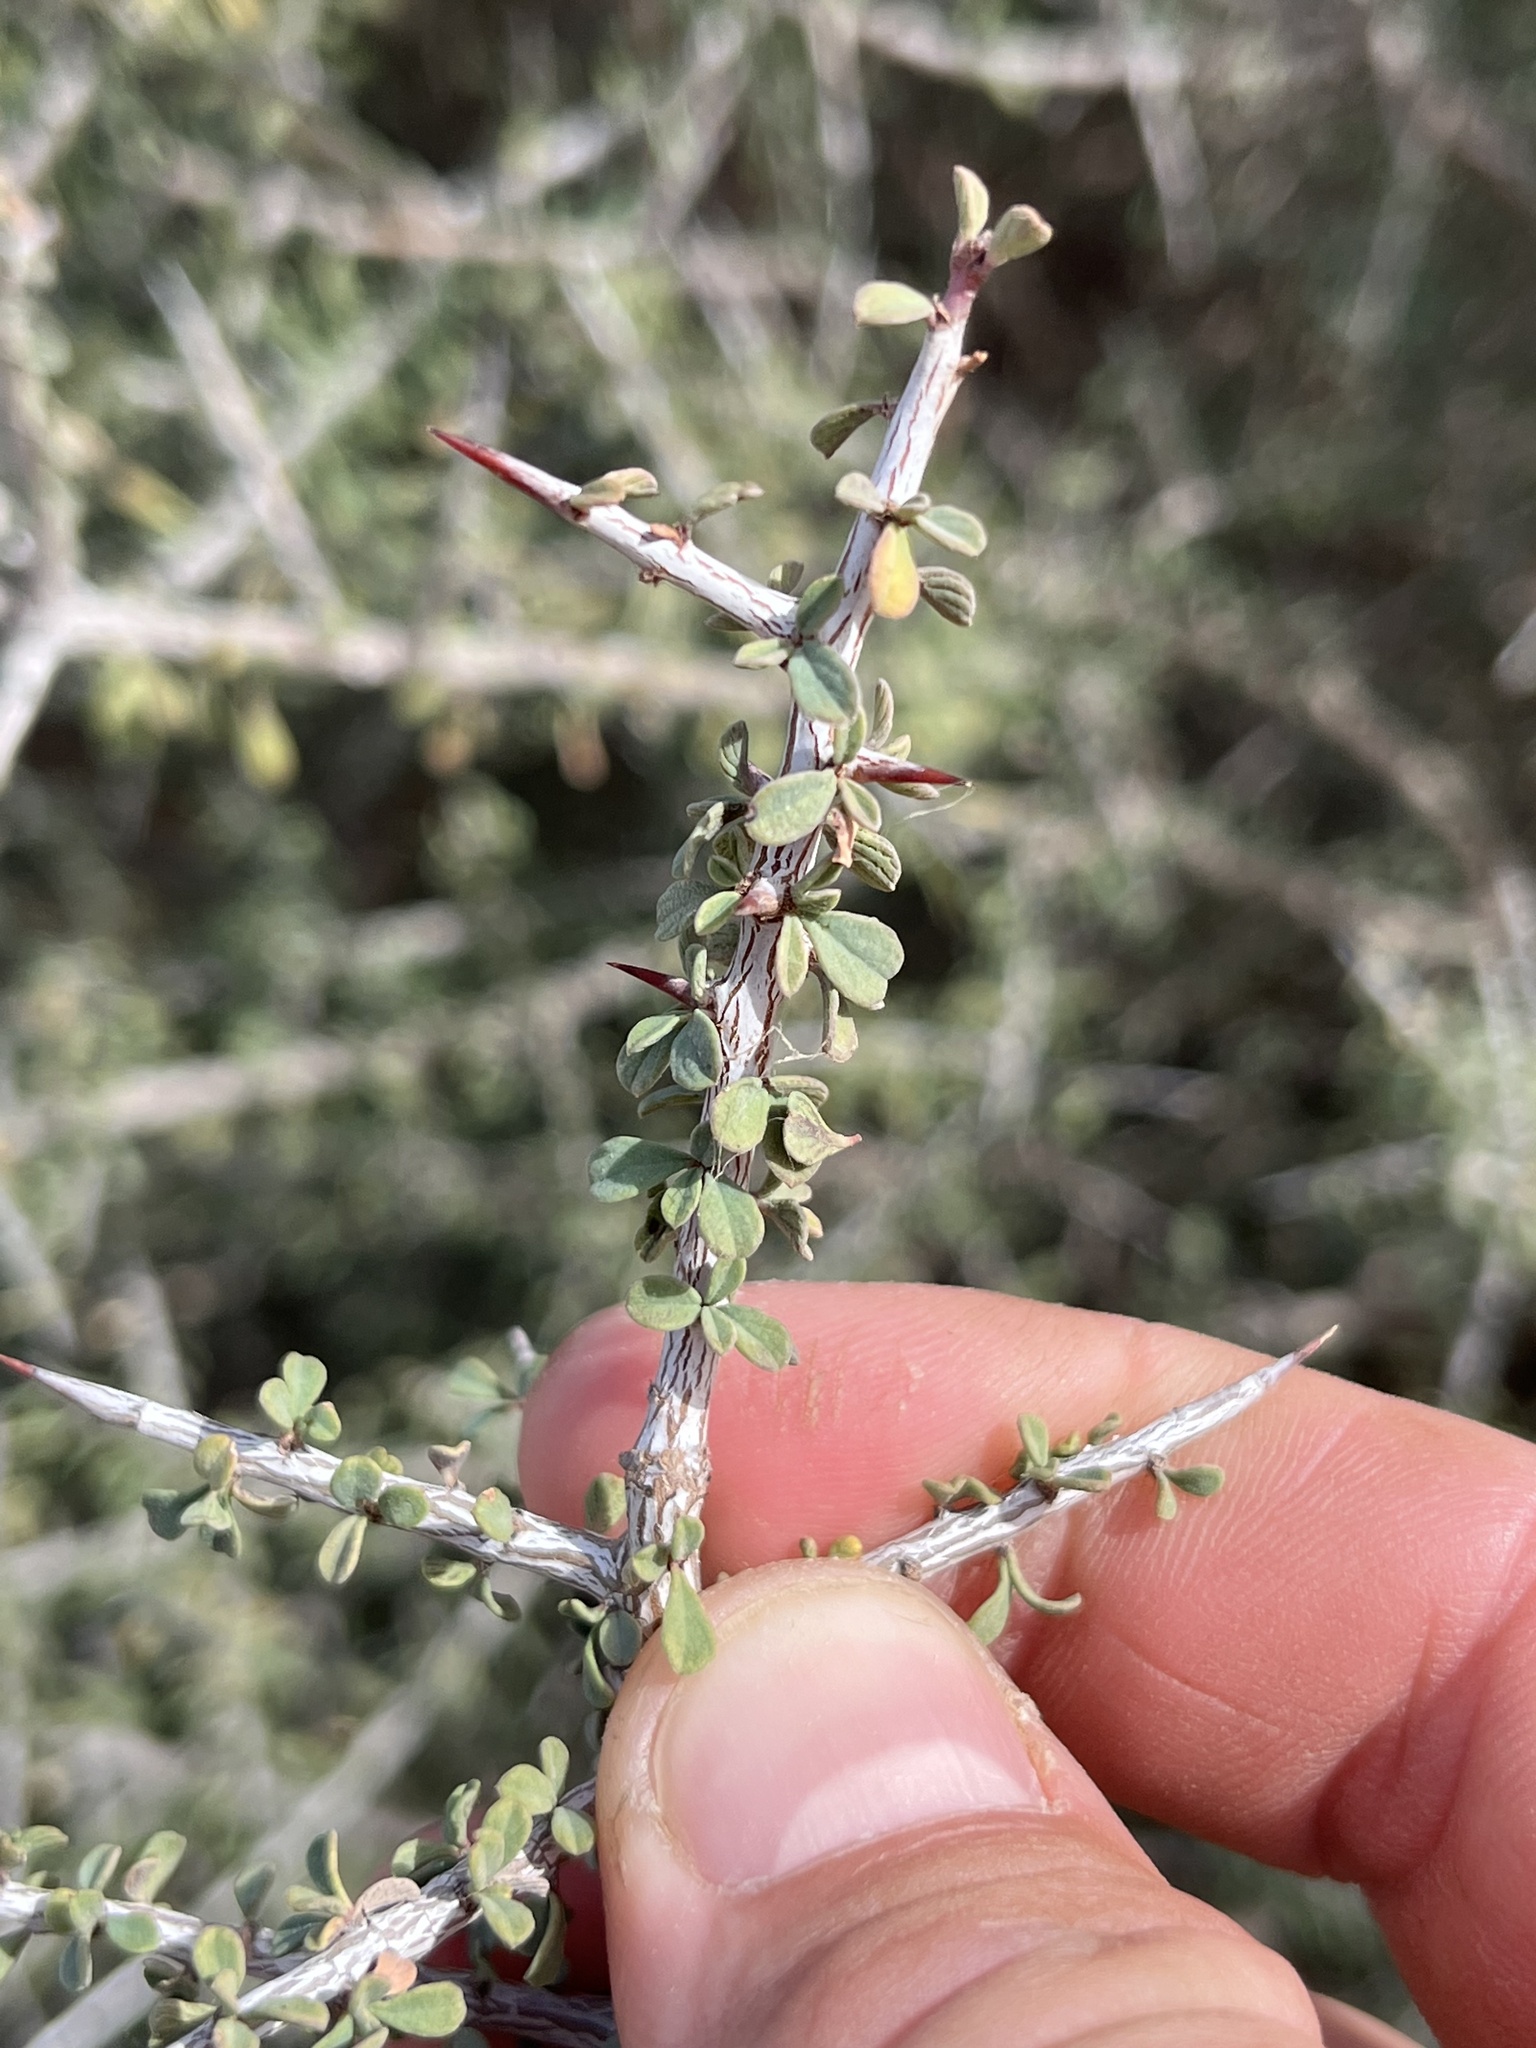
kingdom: Plantae
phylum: Tracheophyta
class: Magnoliopsida
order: Rosales
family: Rhamnaceae
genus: Condalia
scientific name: Condalia spathulata
